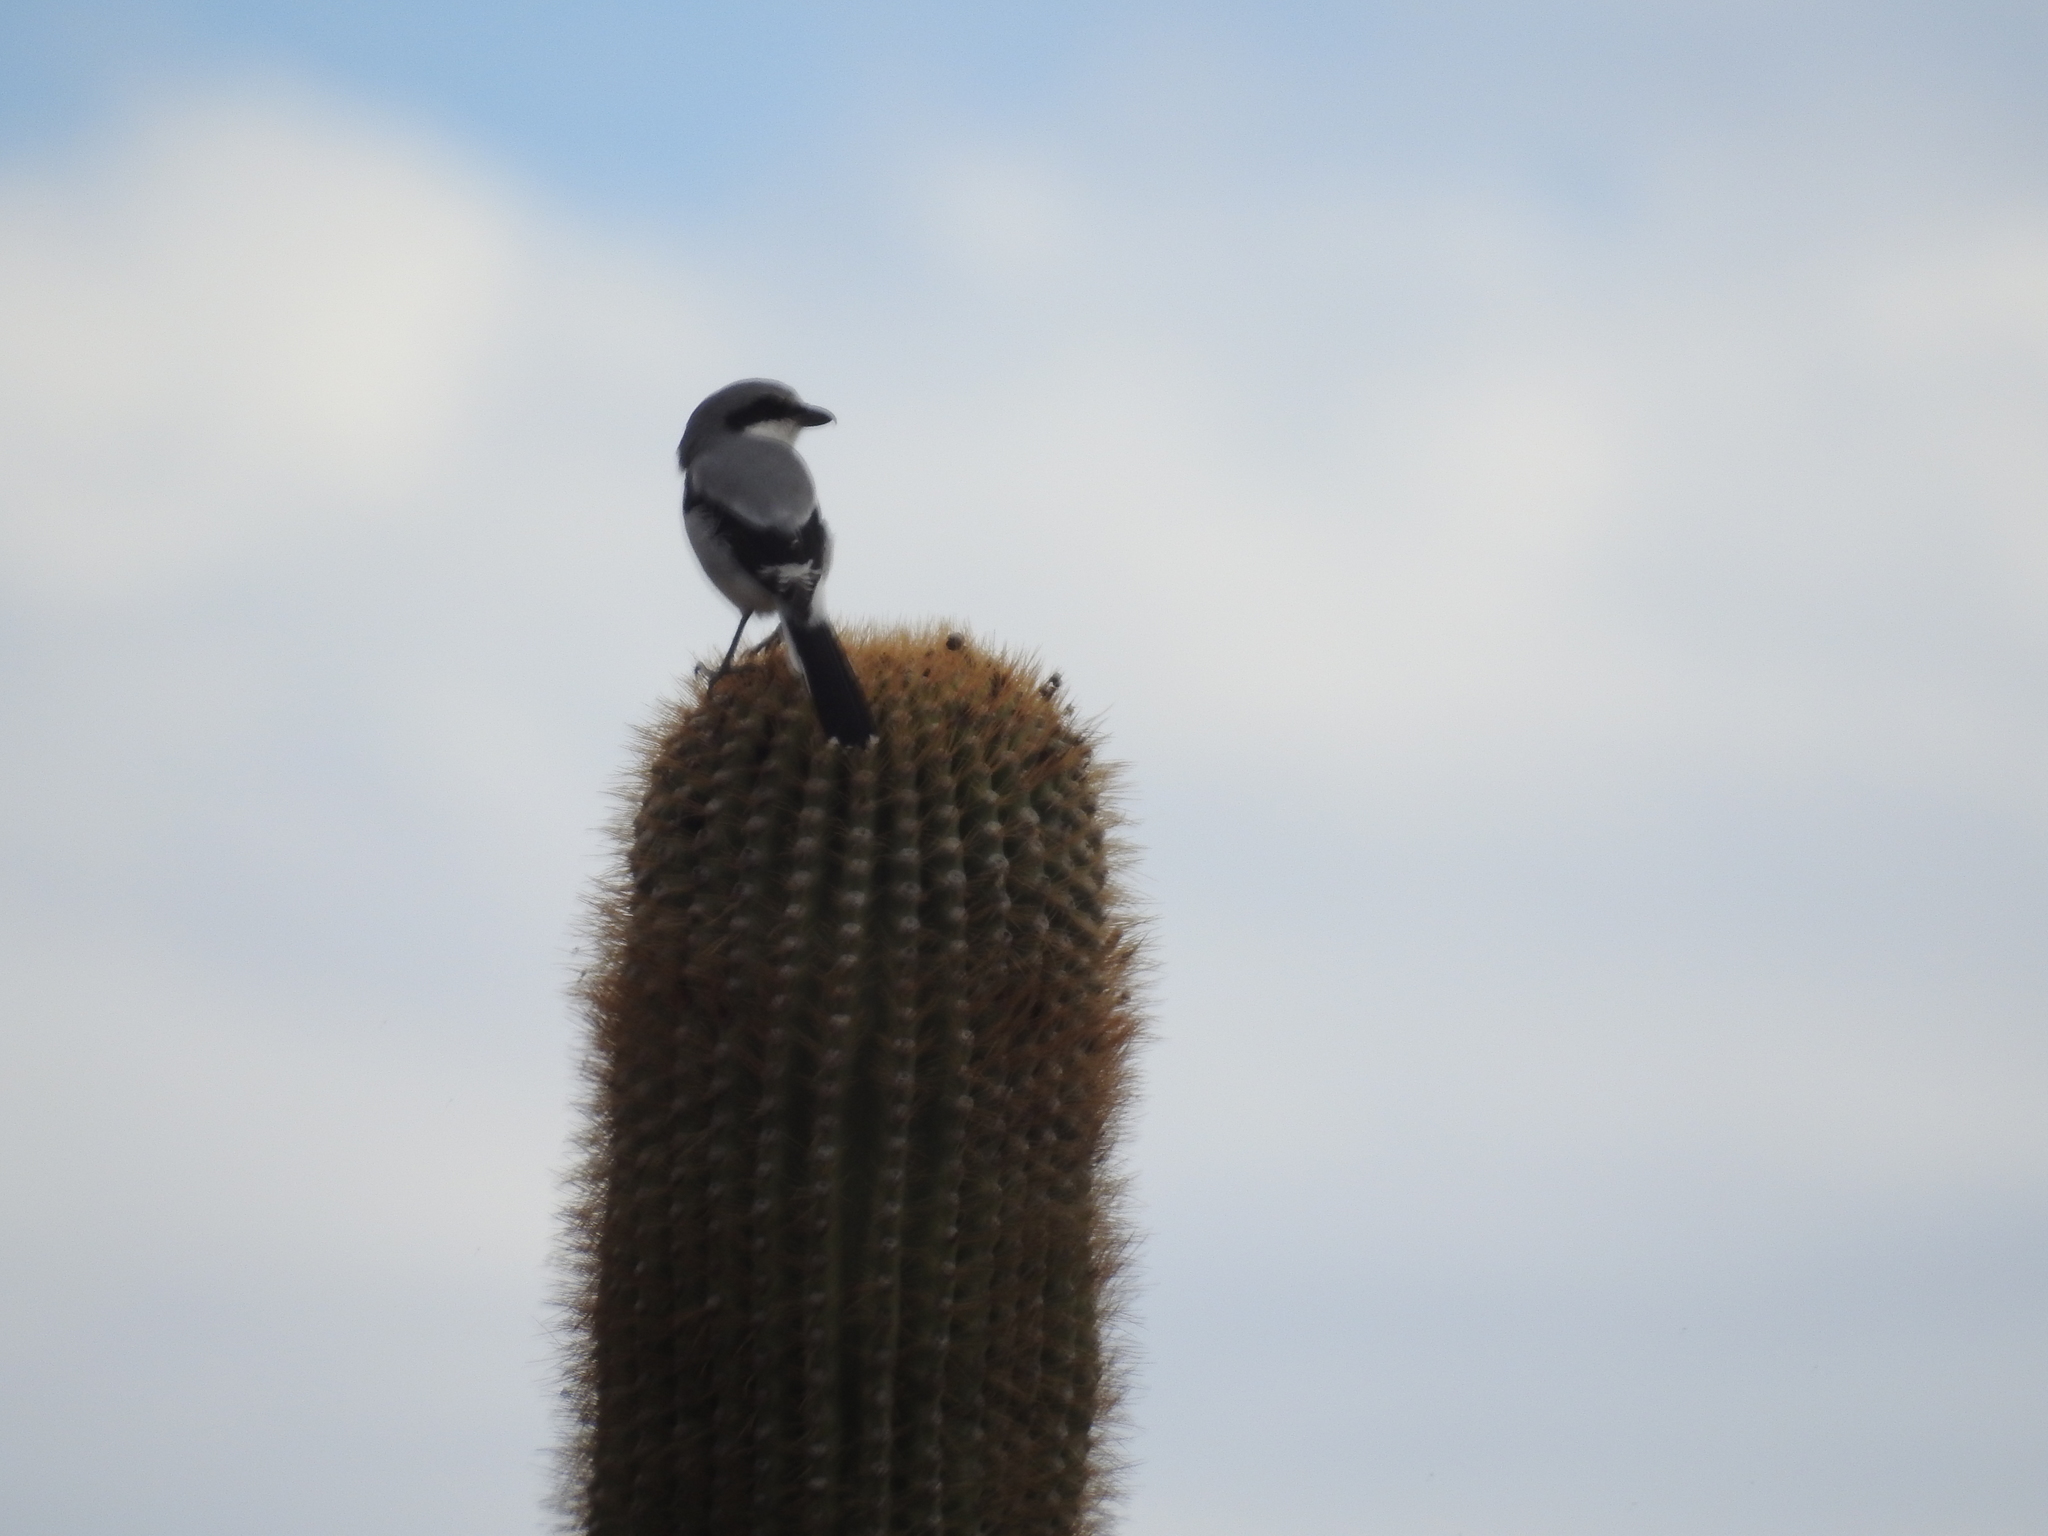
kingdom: Animalia
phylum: Chordata
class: Aves
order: Passeriformes
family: Laniidae
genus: Lanius
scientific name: Lanius ludovicianus
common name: Loggerhead shrike
